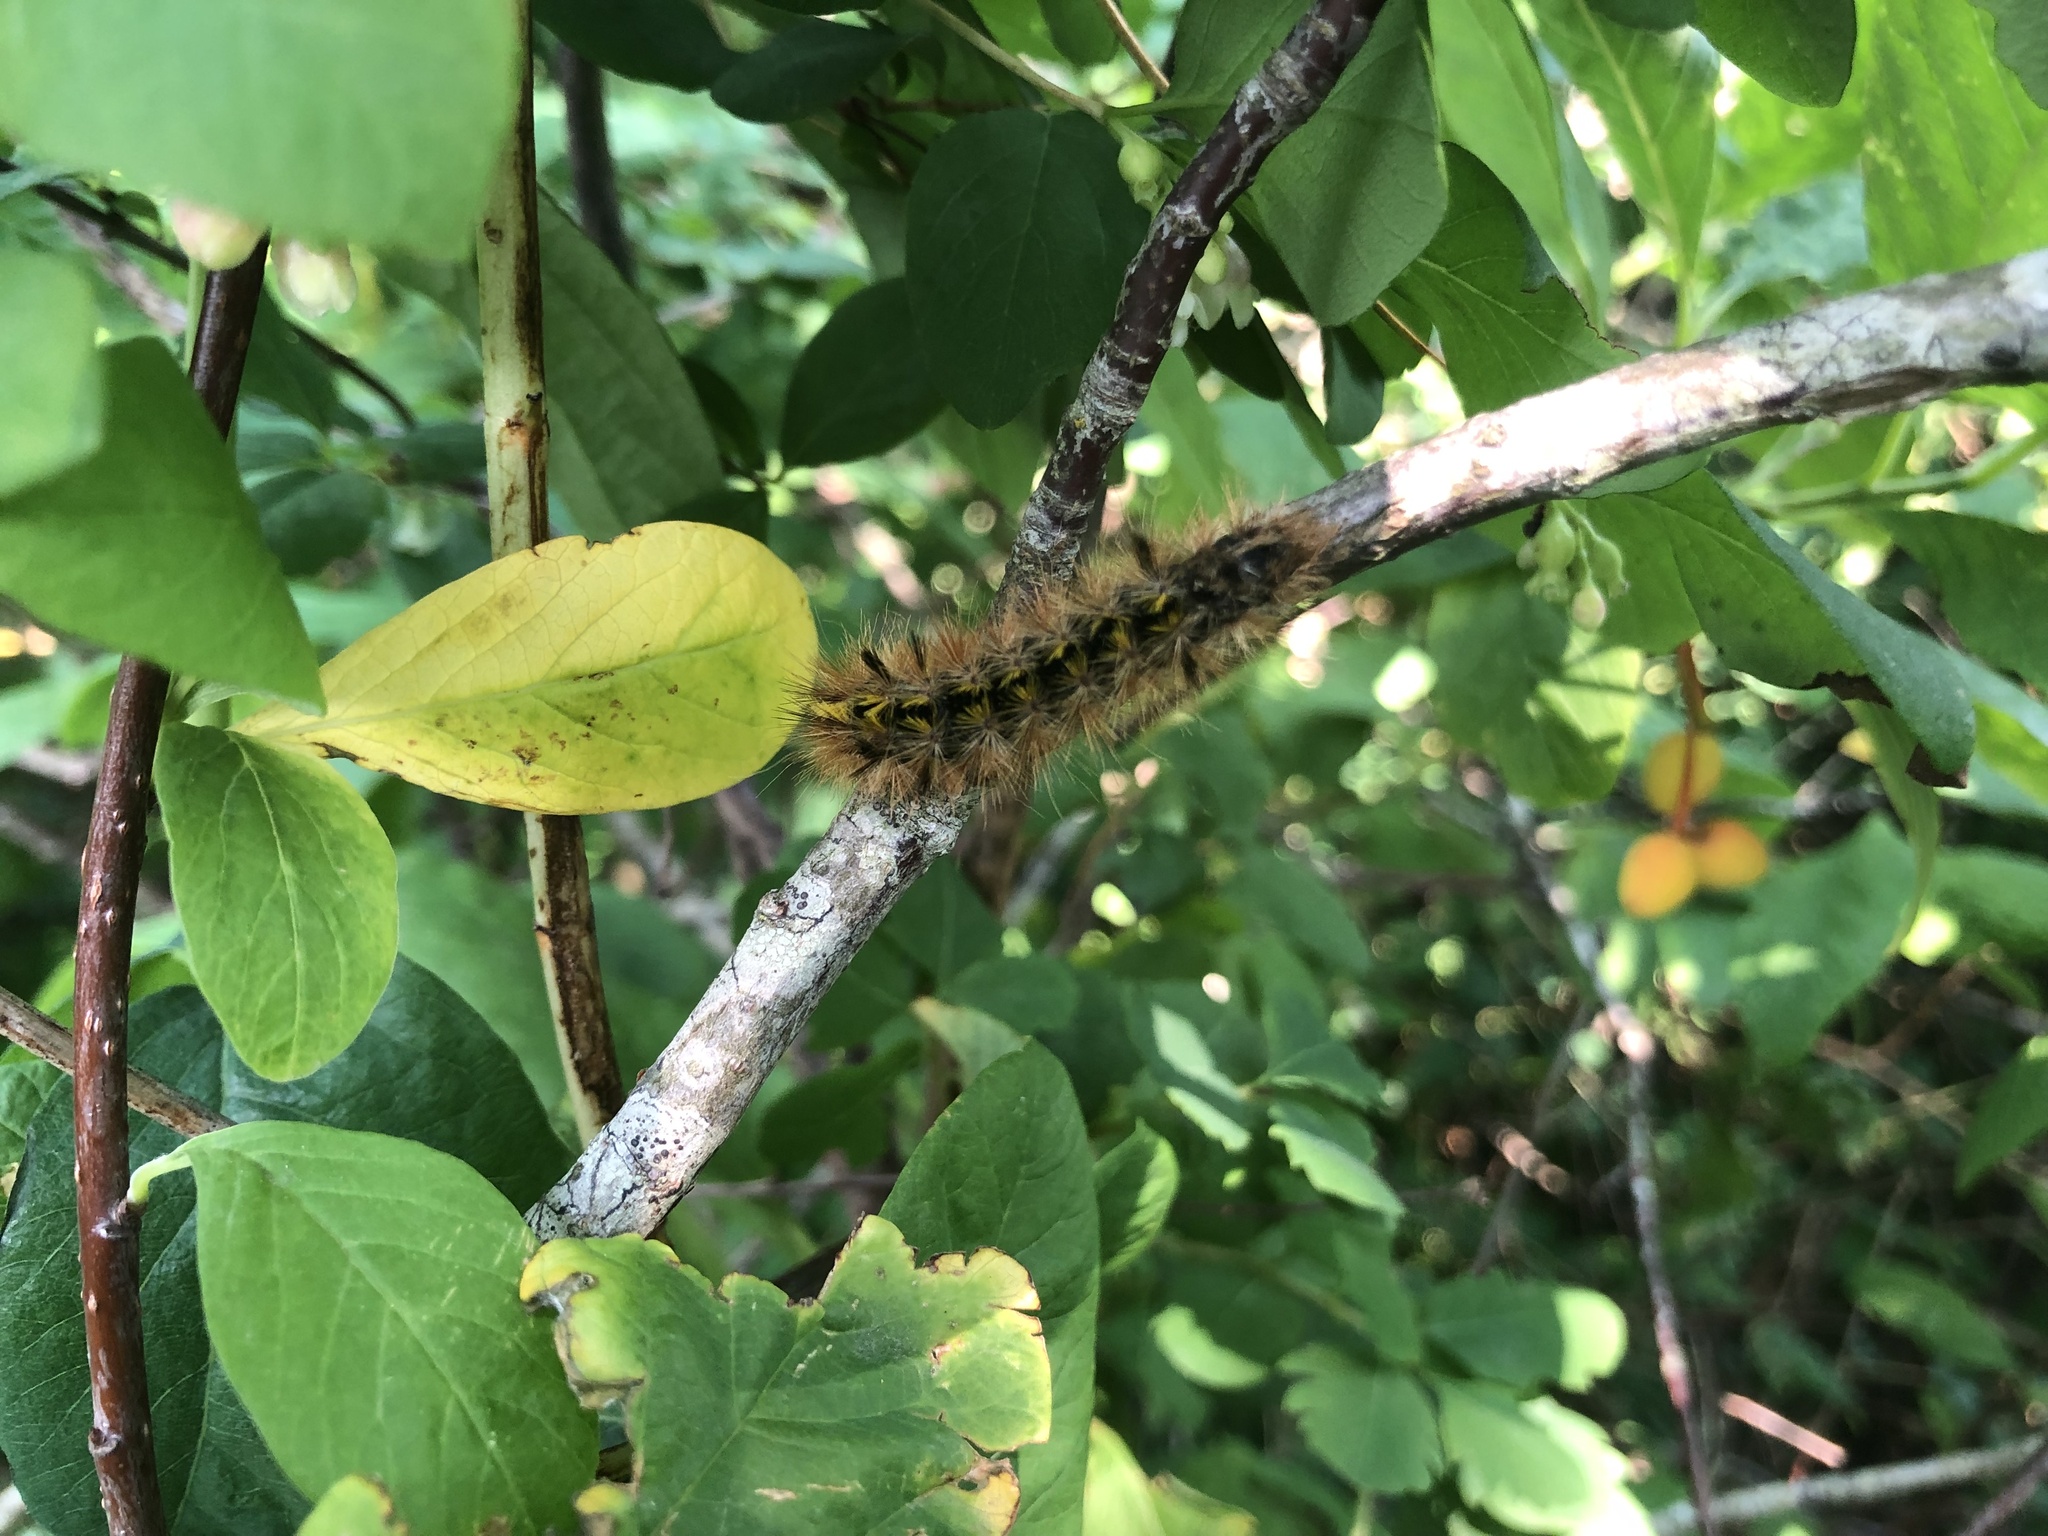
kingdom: Animalia
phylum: Arthropoda
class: Insecta
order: Lepidoptera
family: Erebidae
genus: Lophocampa
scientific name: Lophocampa argentata
